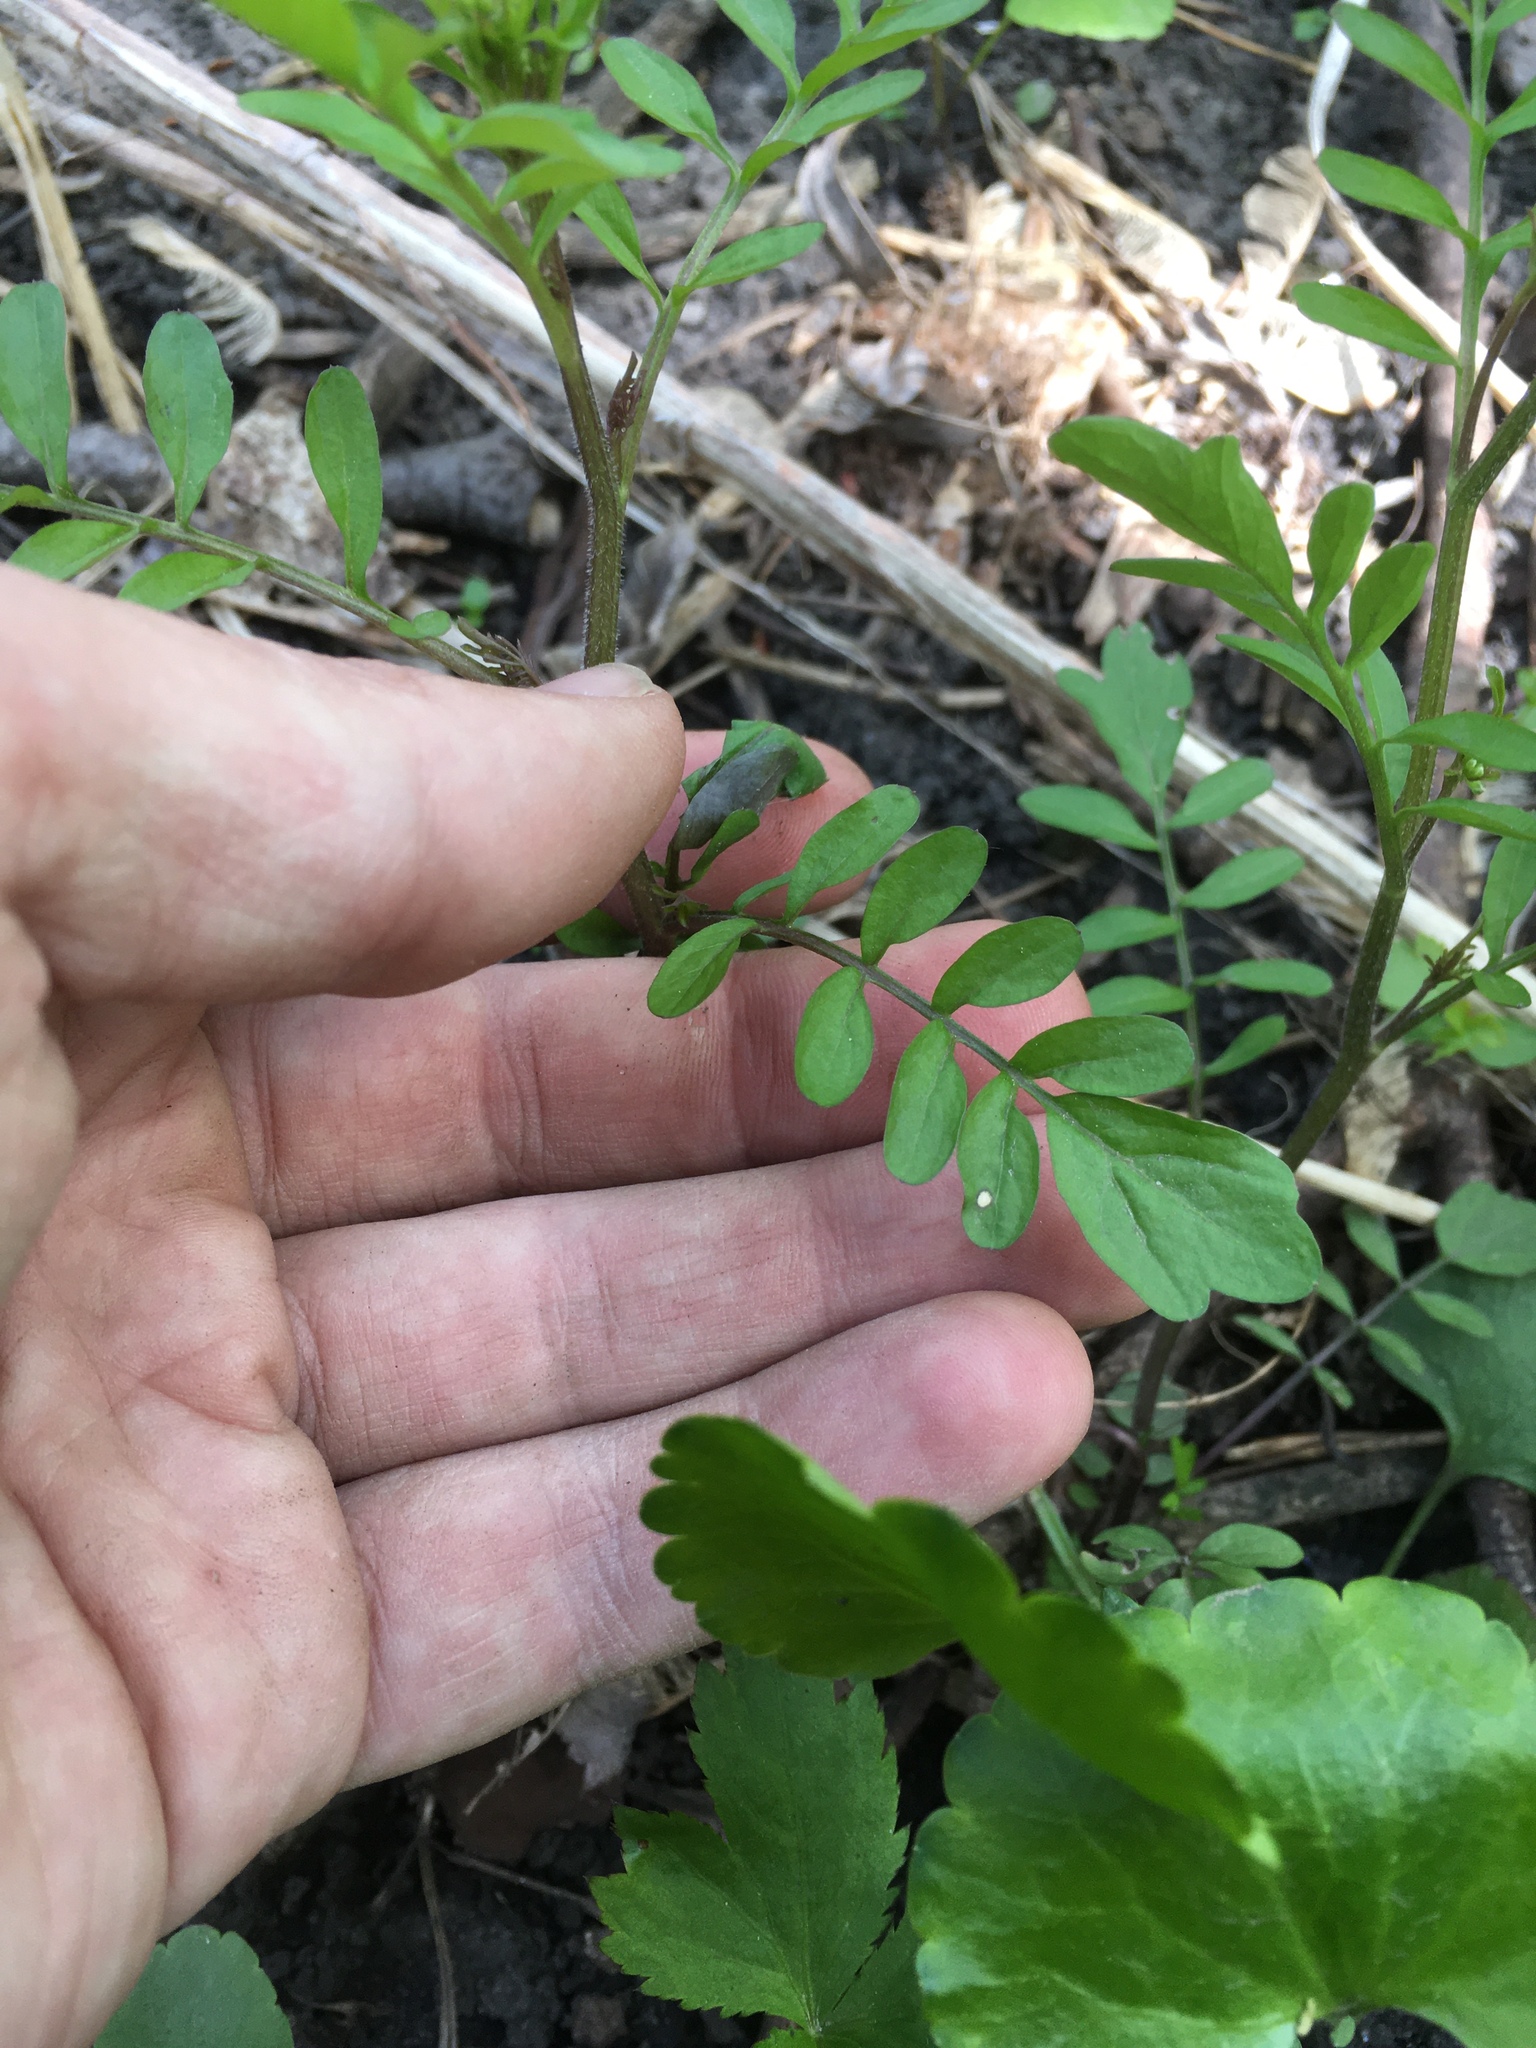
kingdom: Plantae
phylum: Tracheophyta
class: Magnoliopsida
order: Brassicales
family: Brassicaceae
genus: Cardamine
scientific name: Cardamine pensylvanica
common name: Pennsylvania bittercress
